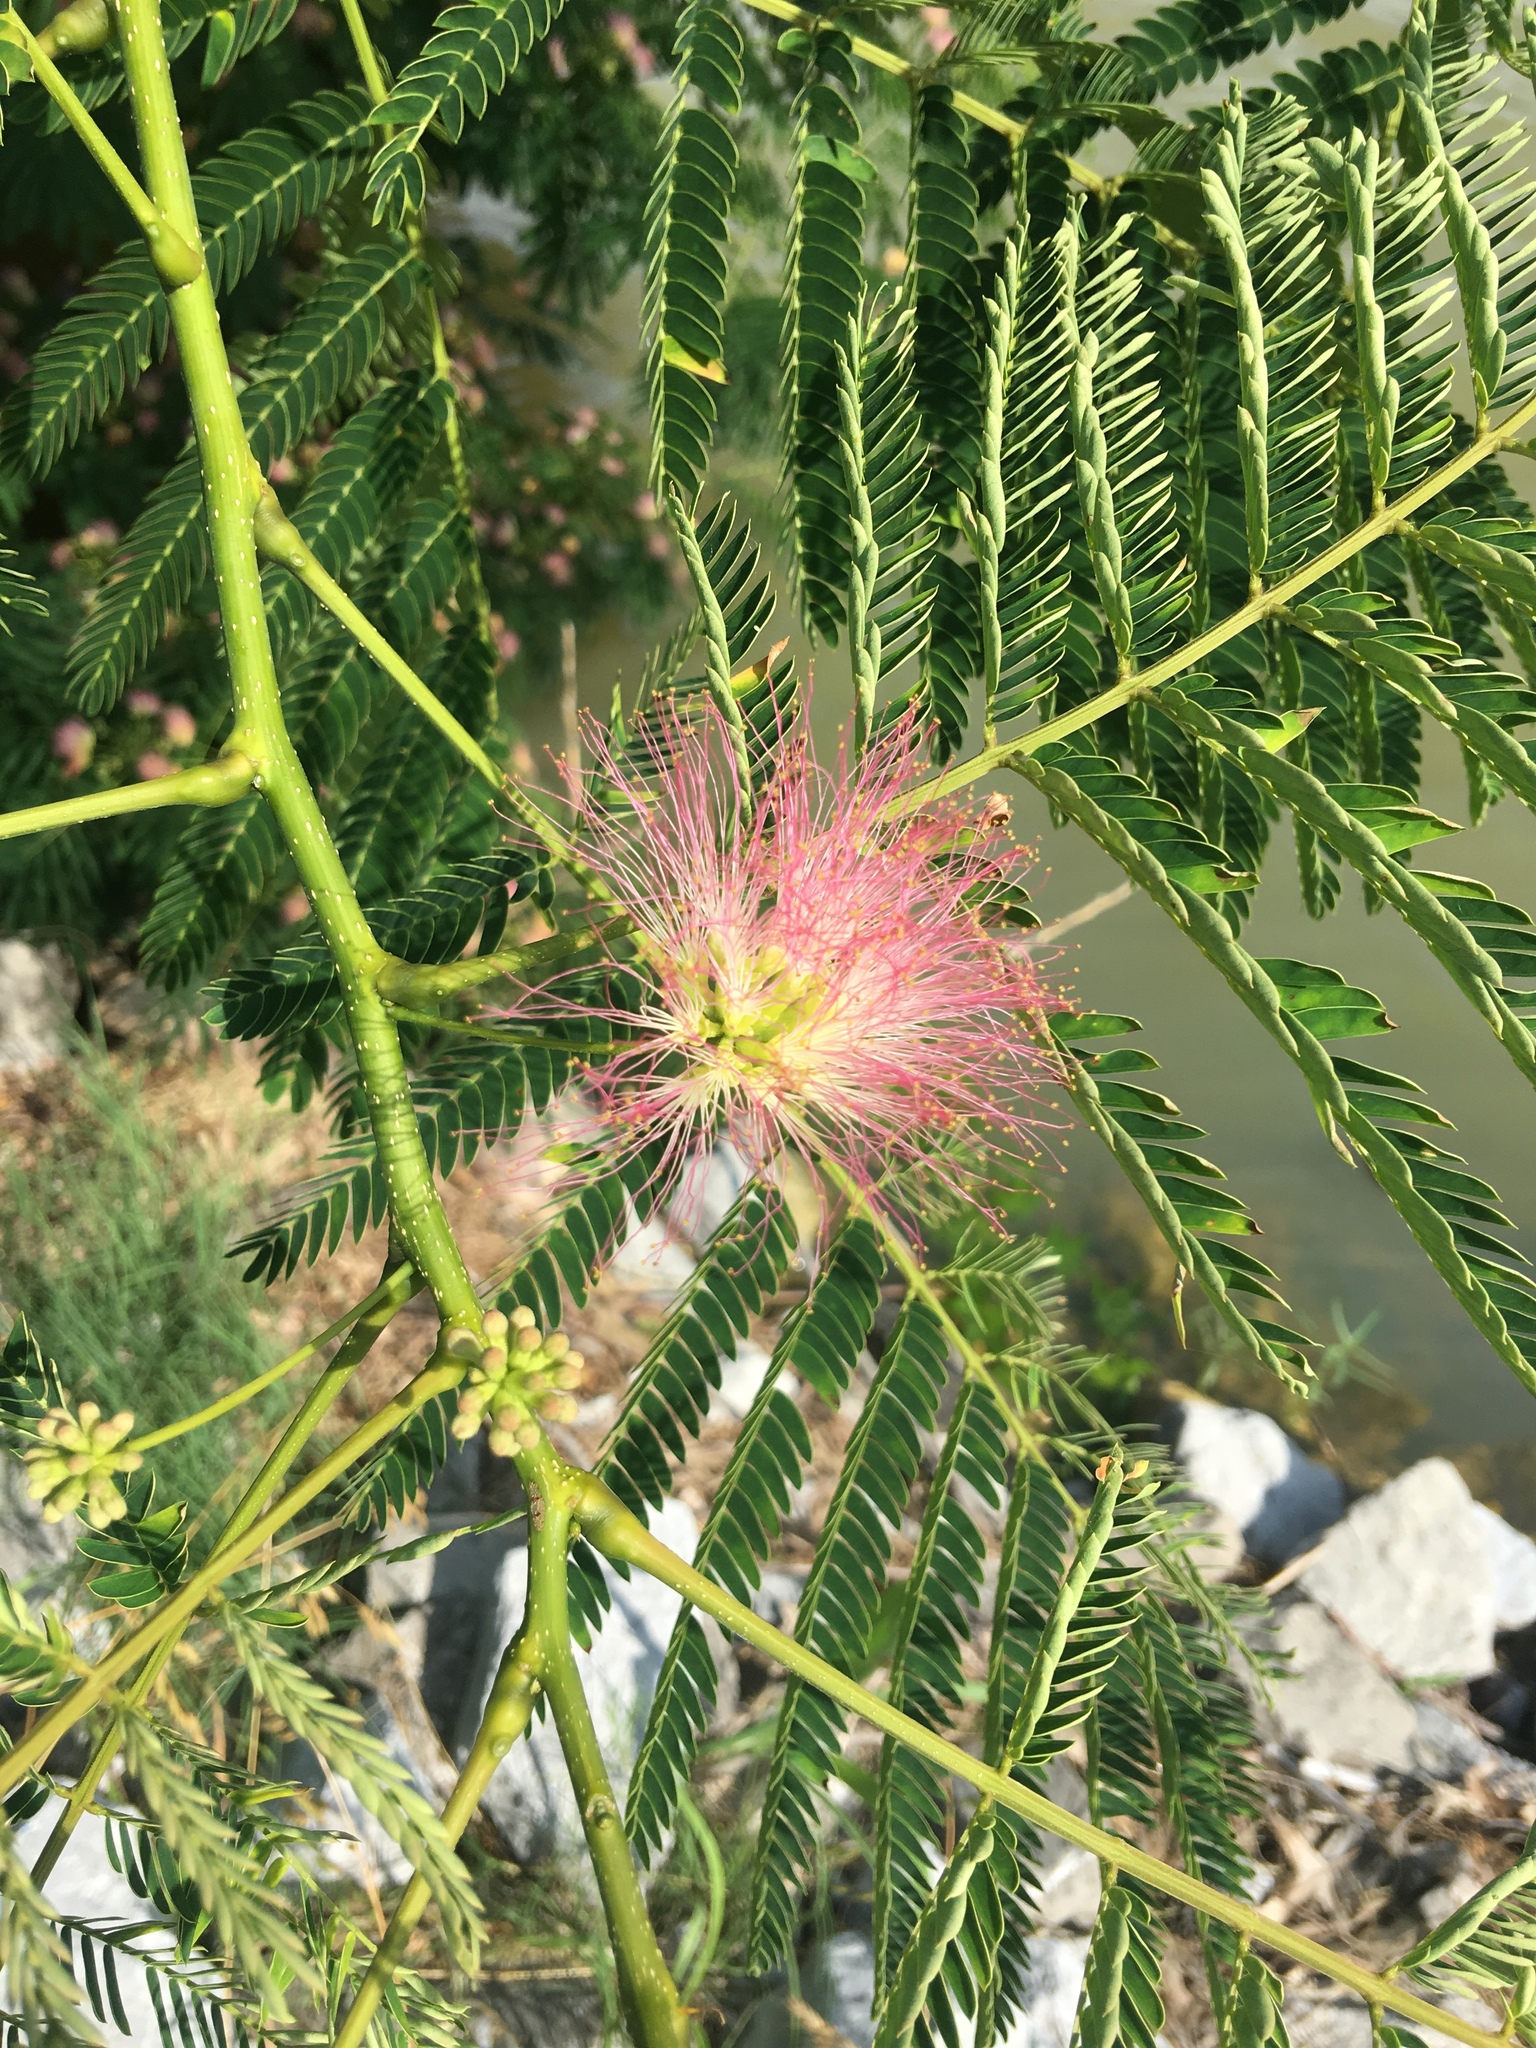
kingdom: Plantae
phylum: Tracheophyta
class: Magnoliopsida
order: Fabales
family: Fabaceae
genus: Albizia
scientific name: Albizia julibrissin
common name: Silktree
